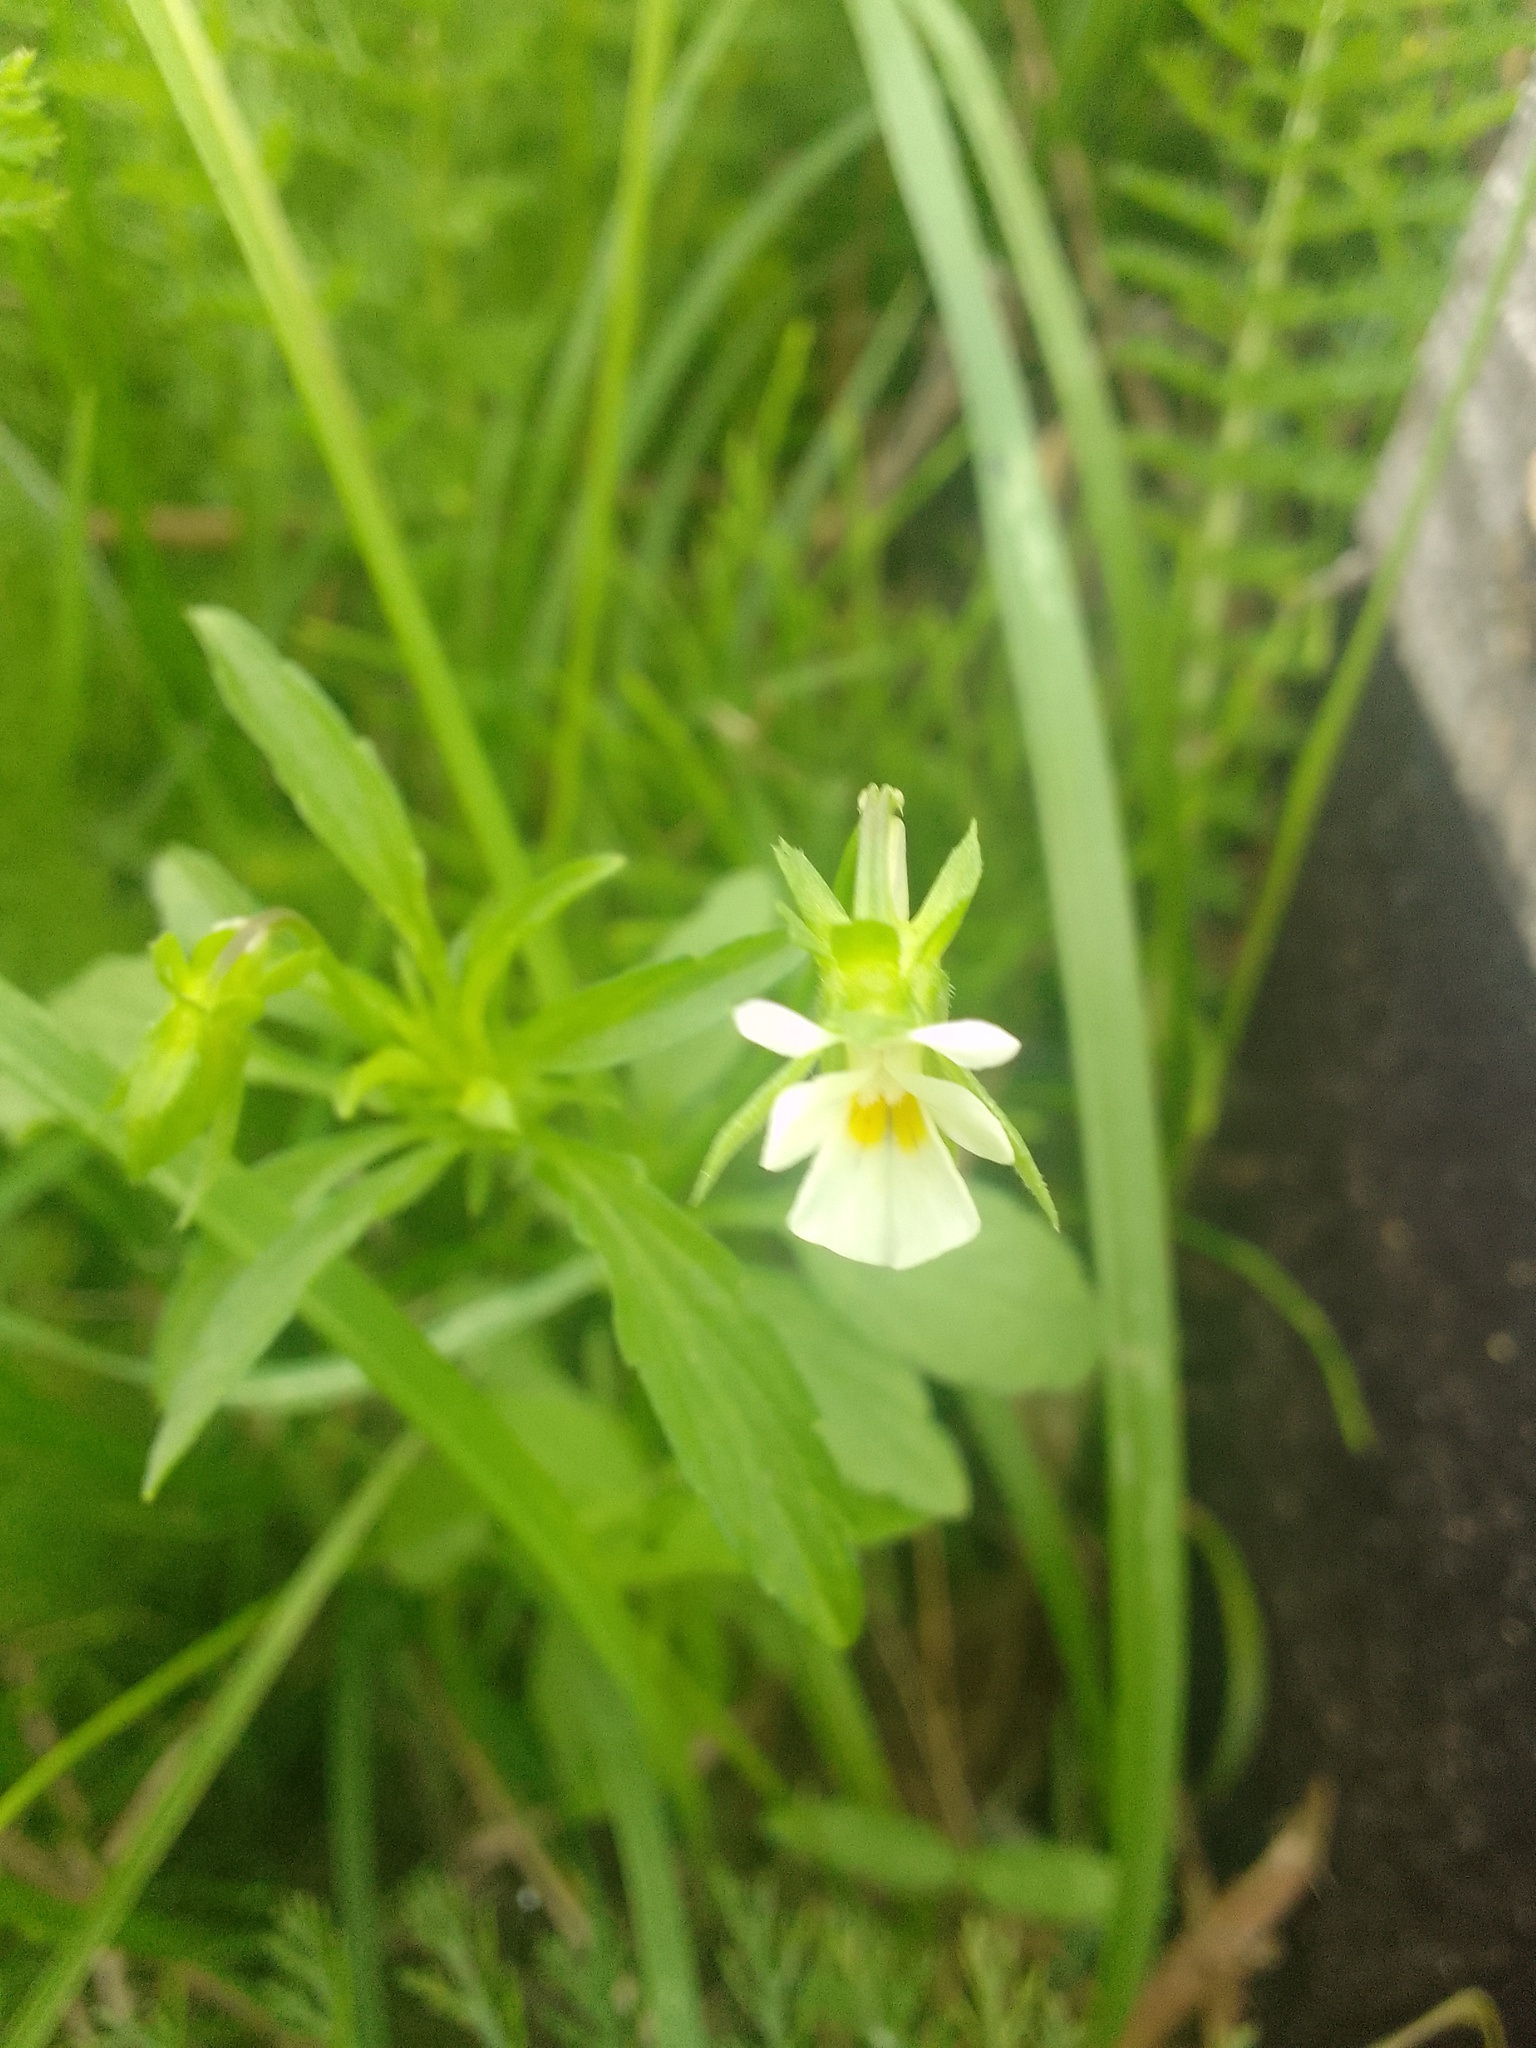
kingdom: Plantae
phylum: Tracheophyta
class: Magnoliopsida
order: Malpighiales
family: Violaceae
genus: Viola
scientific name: Viola arvensis
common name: Field pansy
